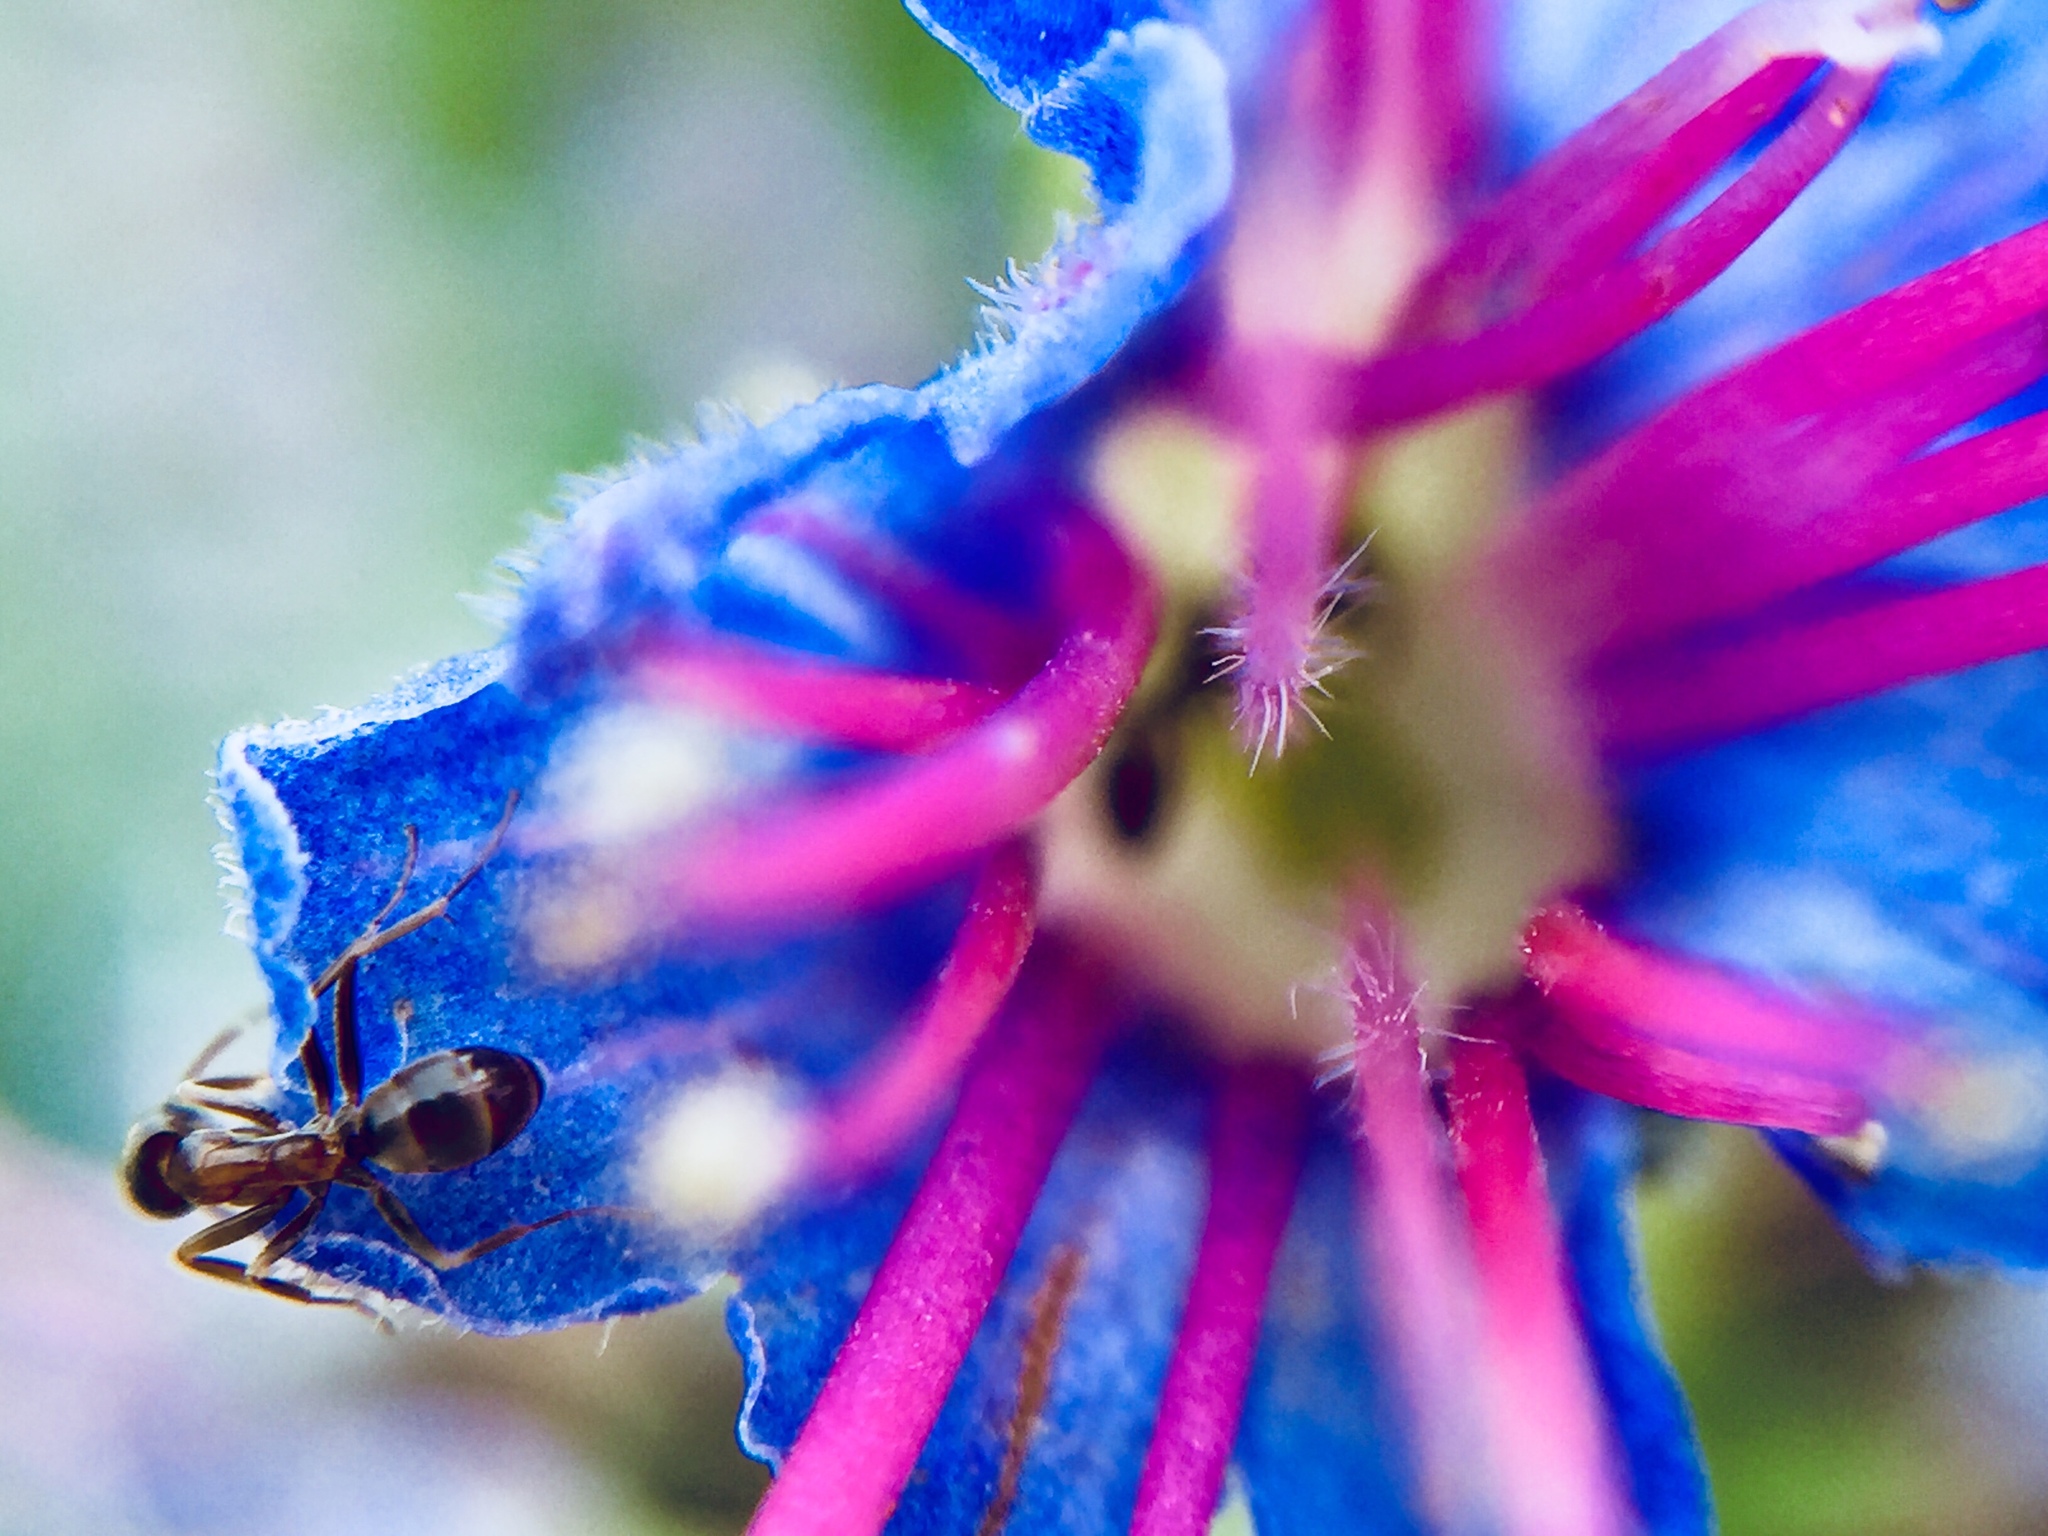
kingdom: Animalia
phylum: Arthropoda
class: Insecta
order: Hymenoptera
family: Formicidae
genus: Linepithema
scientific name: Linepithema humile
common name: Argentine ant
